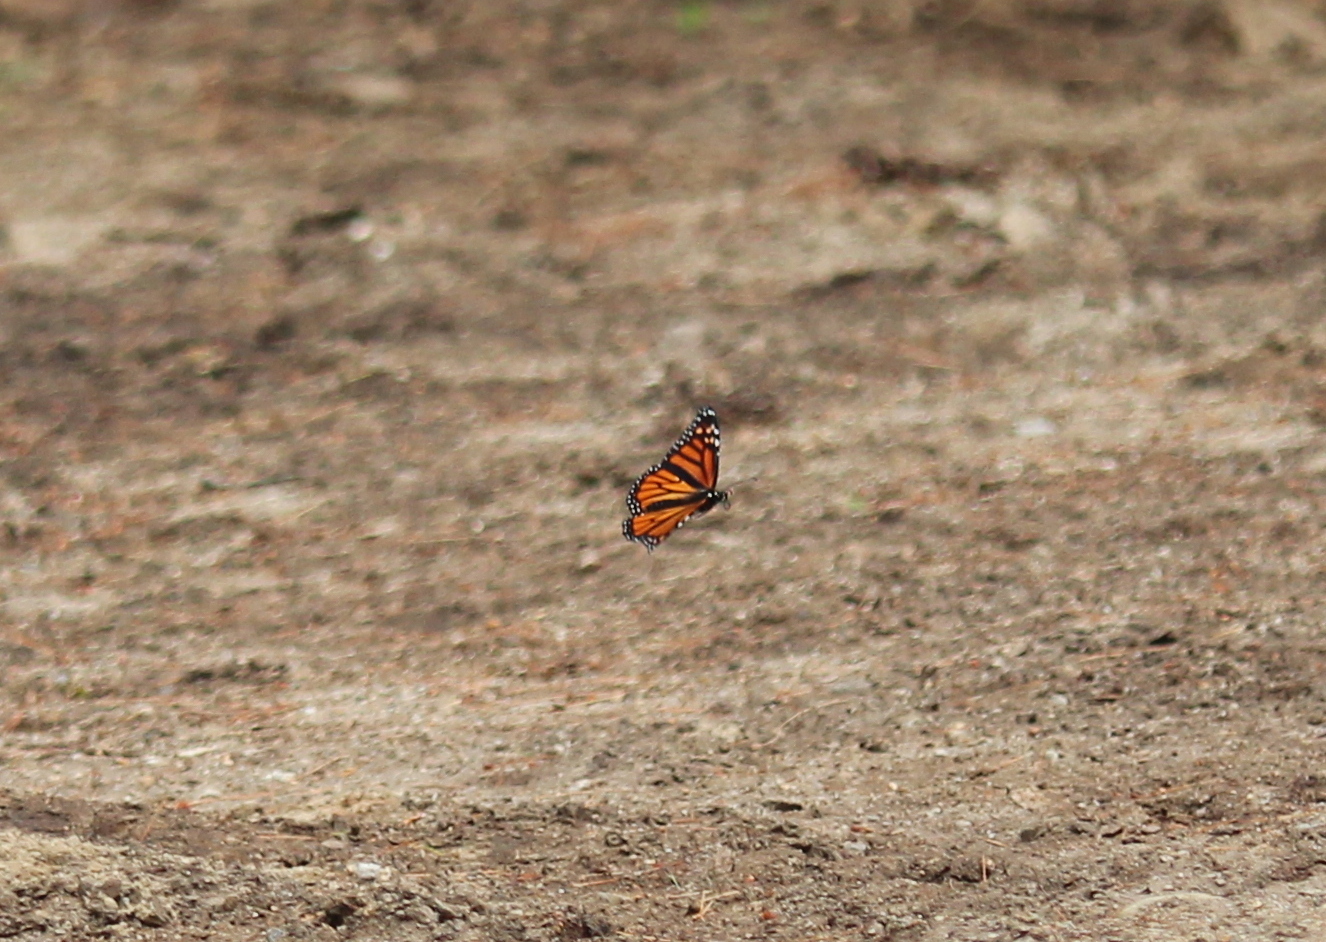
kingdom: Animalia
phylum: Arthropoda
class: Insecta
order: Lepidoptera
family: Nymphalidae
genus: Danaus
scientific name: Danaus plexippus
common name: Monarch
